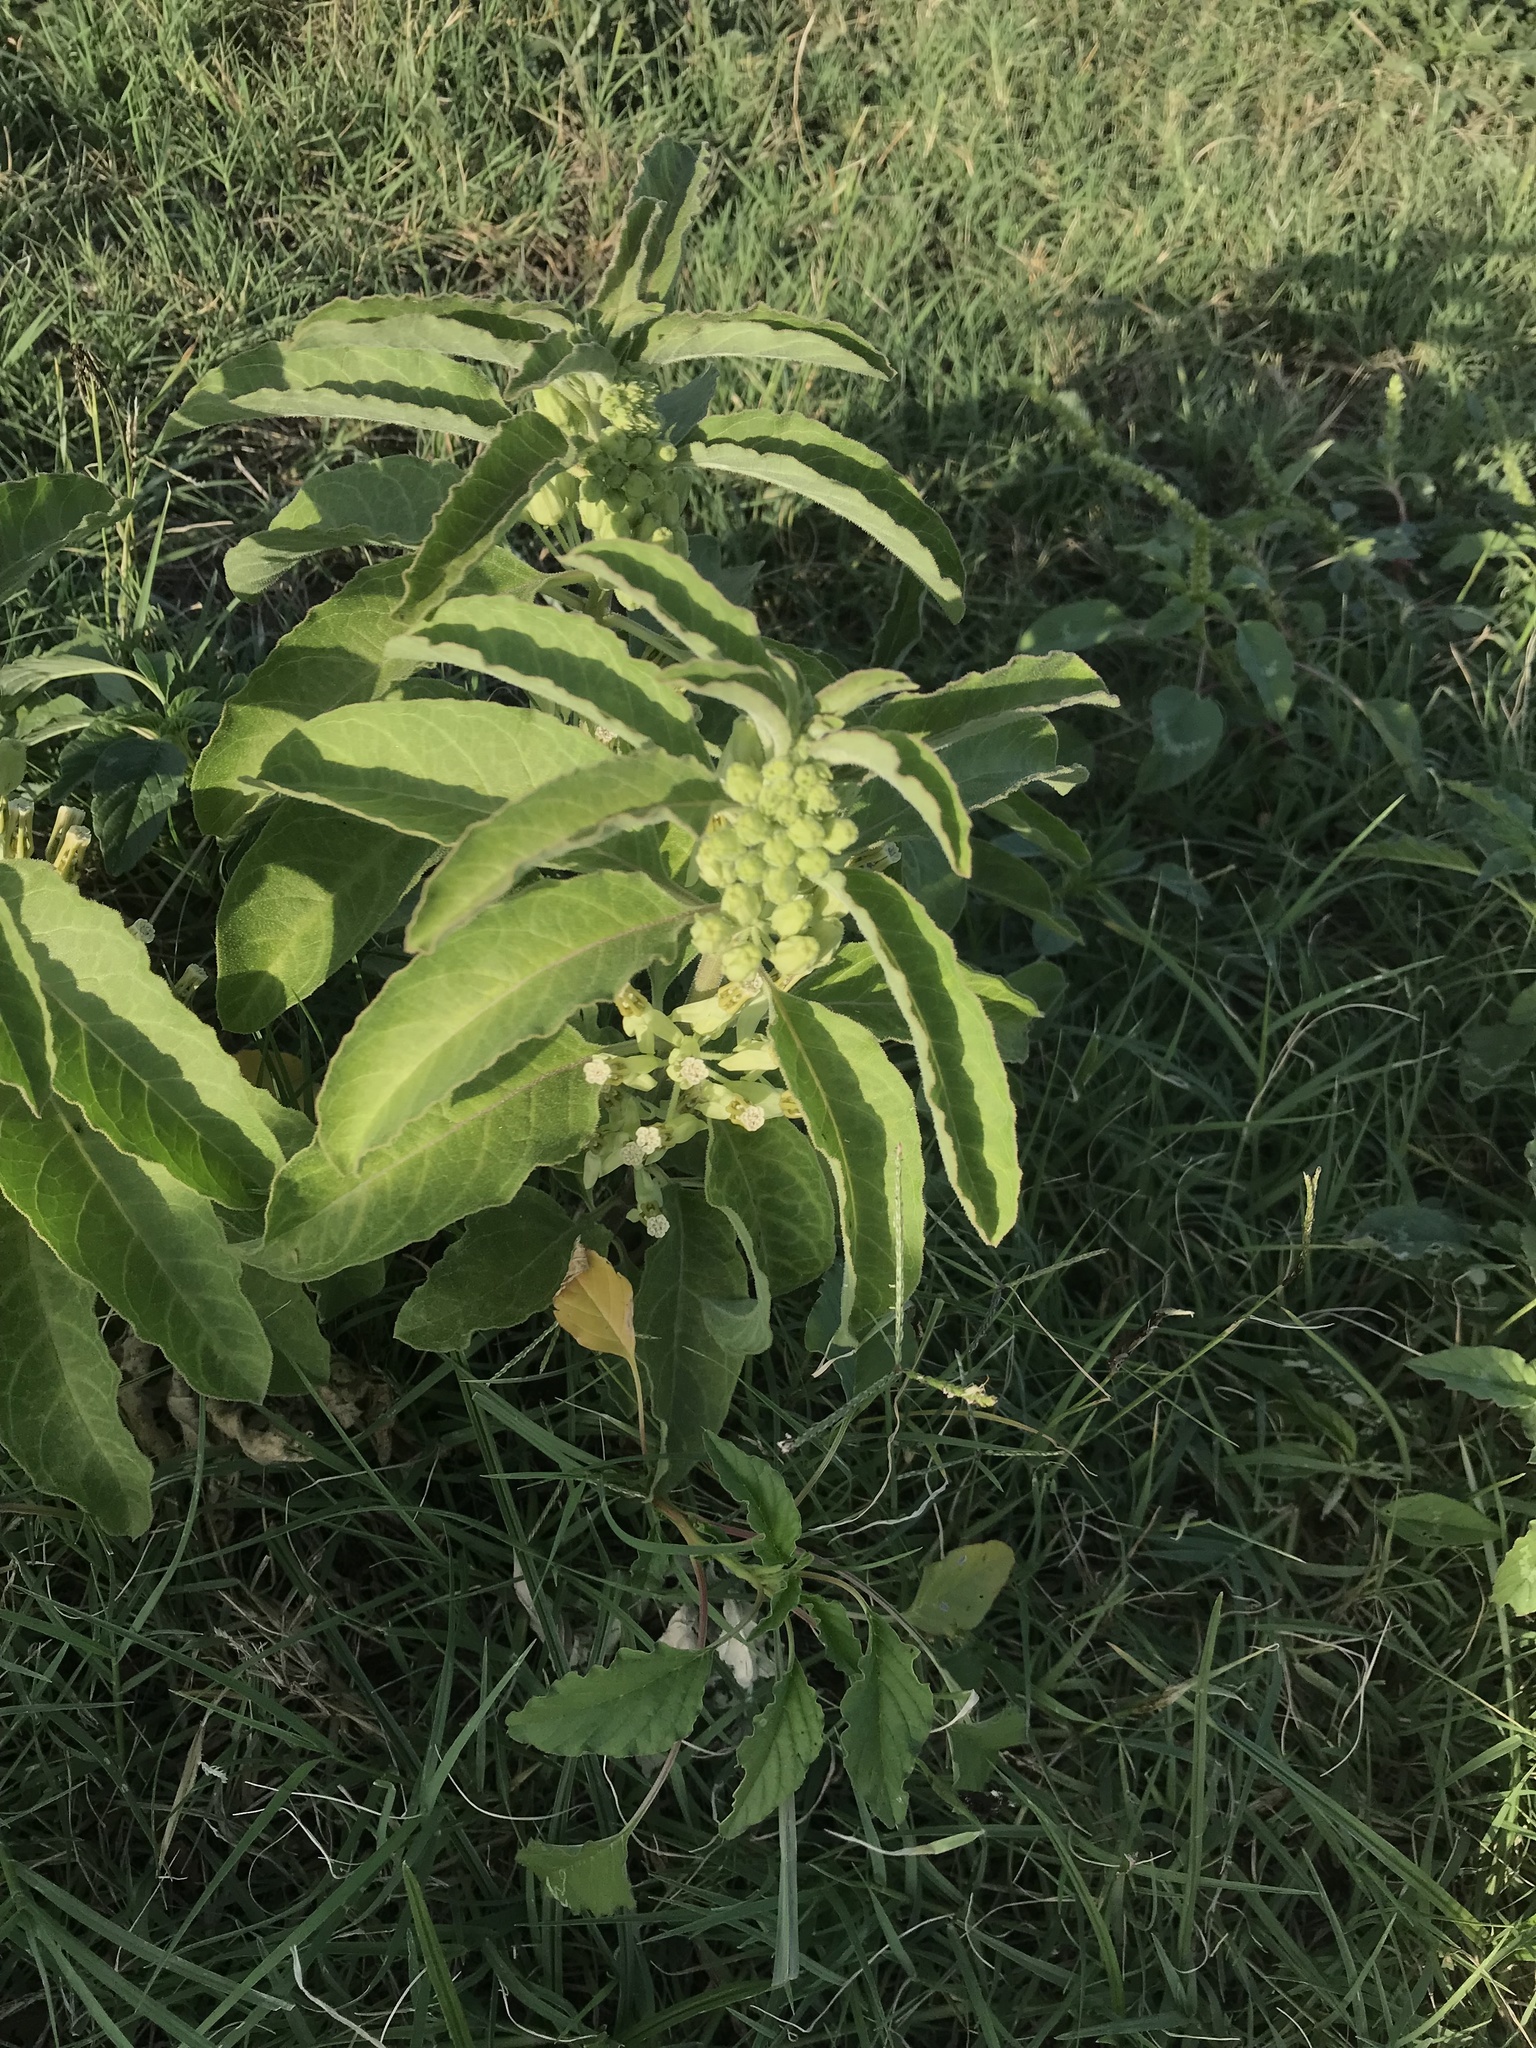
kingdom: Plantae
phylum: Tracheophyta
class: Magnoliopsida
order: Gentianales
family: Apocynaceae
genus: Asclepias
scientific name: Asclepias oenotheroides
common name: Zizotes milkweed
